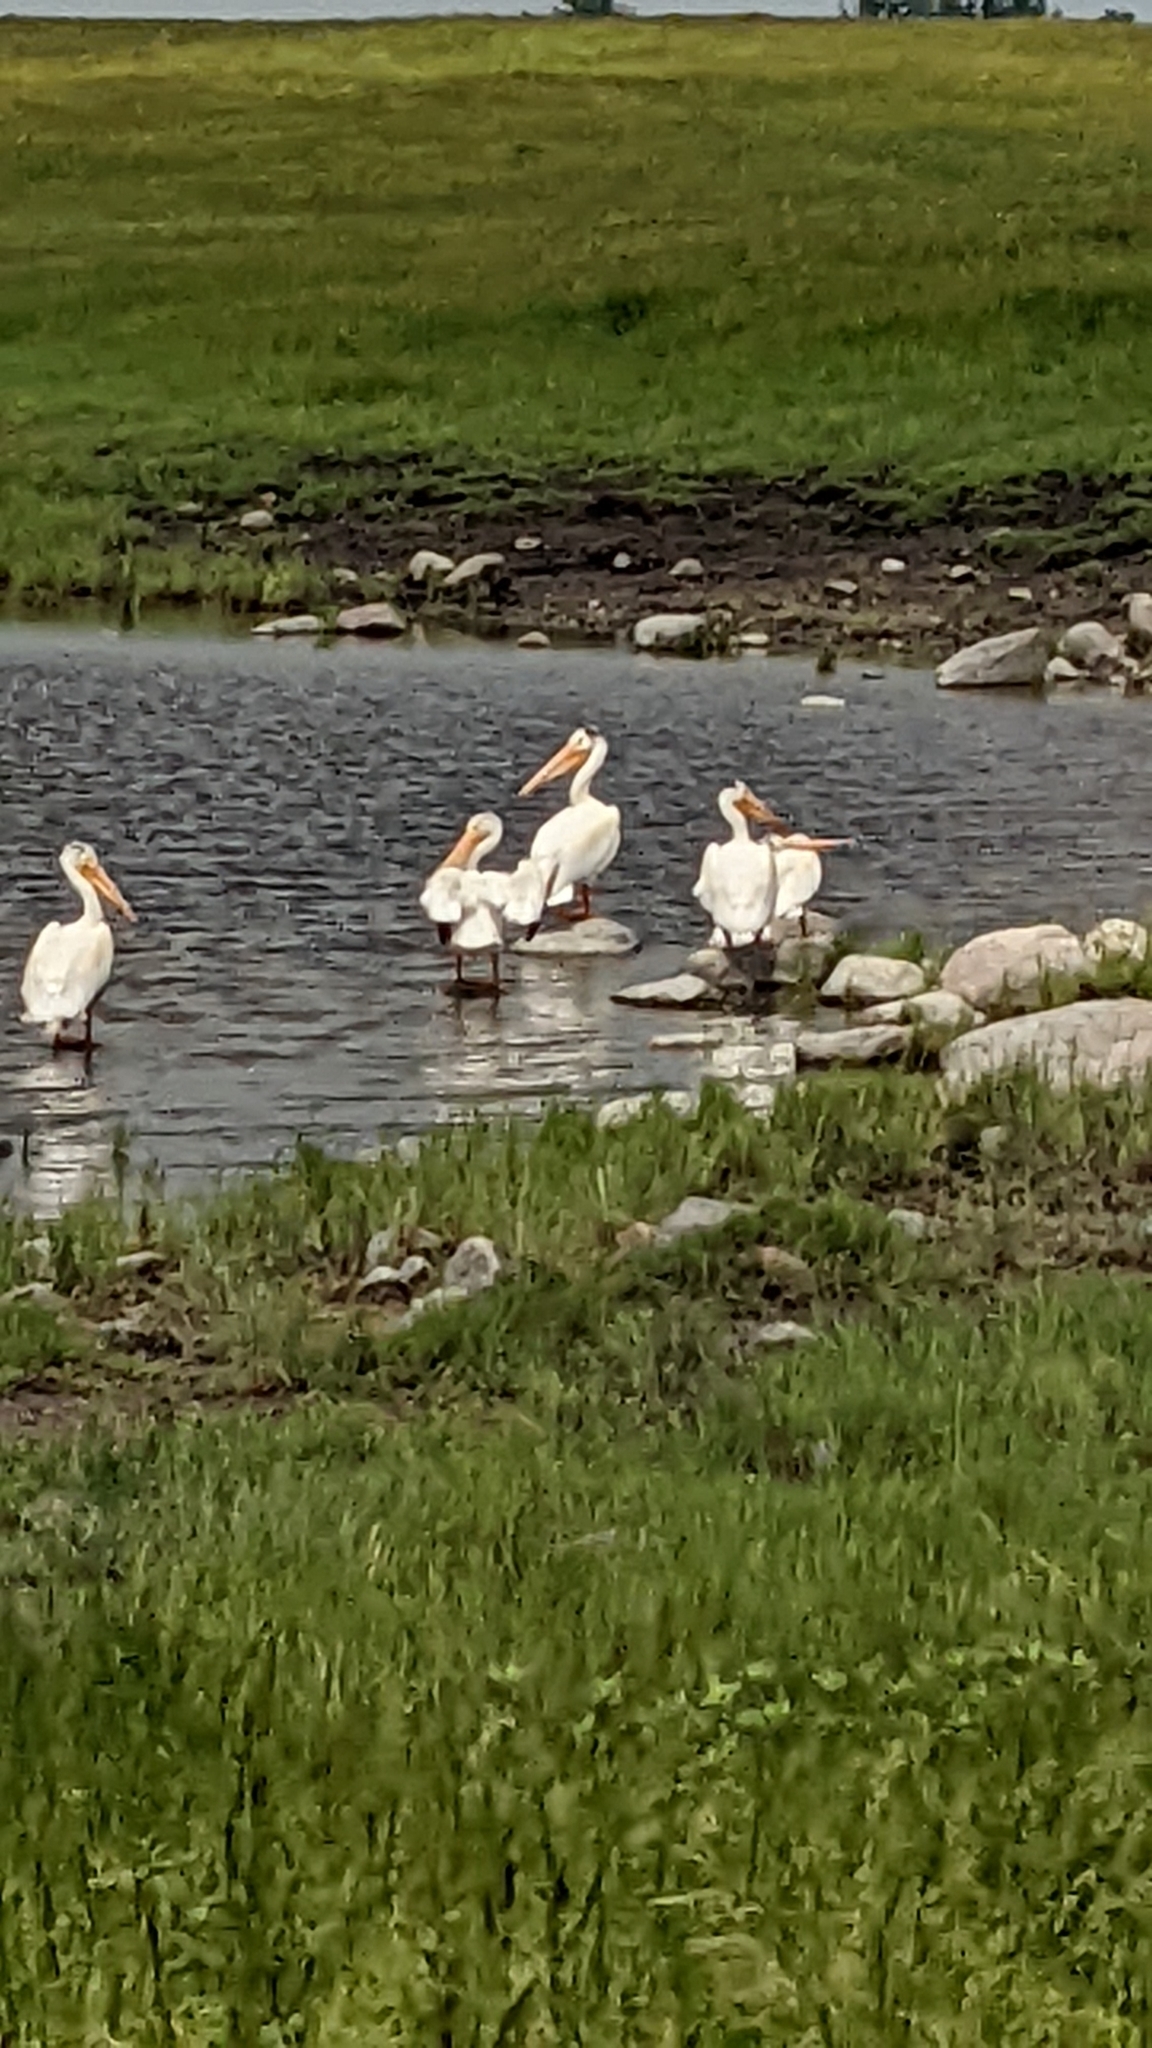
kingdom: Animalia
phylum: Chordata
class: Aves
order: Pelecaniformes
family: Pelecanidae
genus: Pelecanus
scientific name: Pelecanus erythrorhynchos
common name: American white pelican
